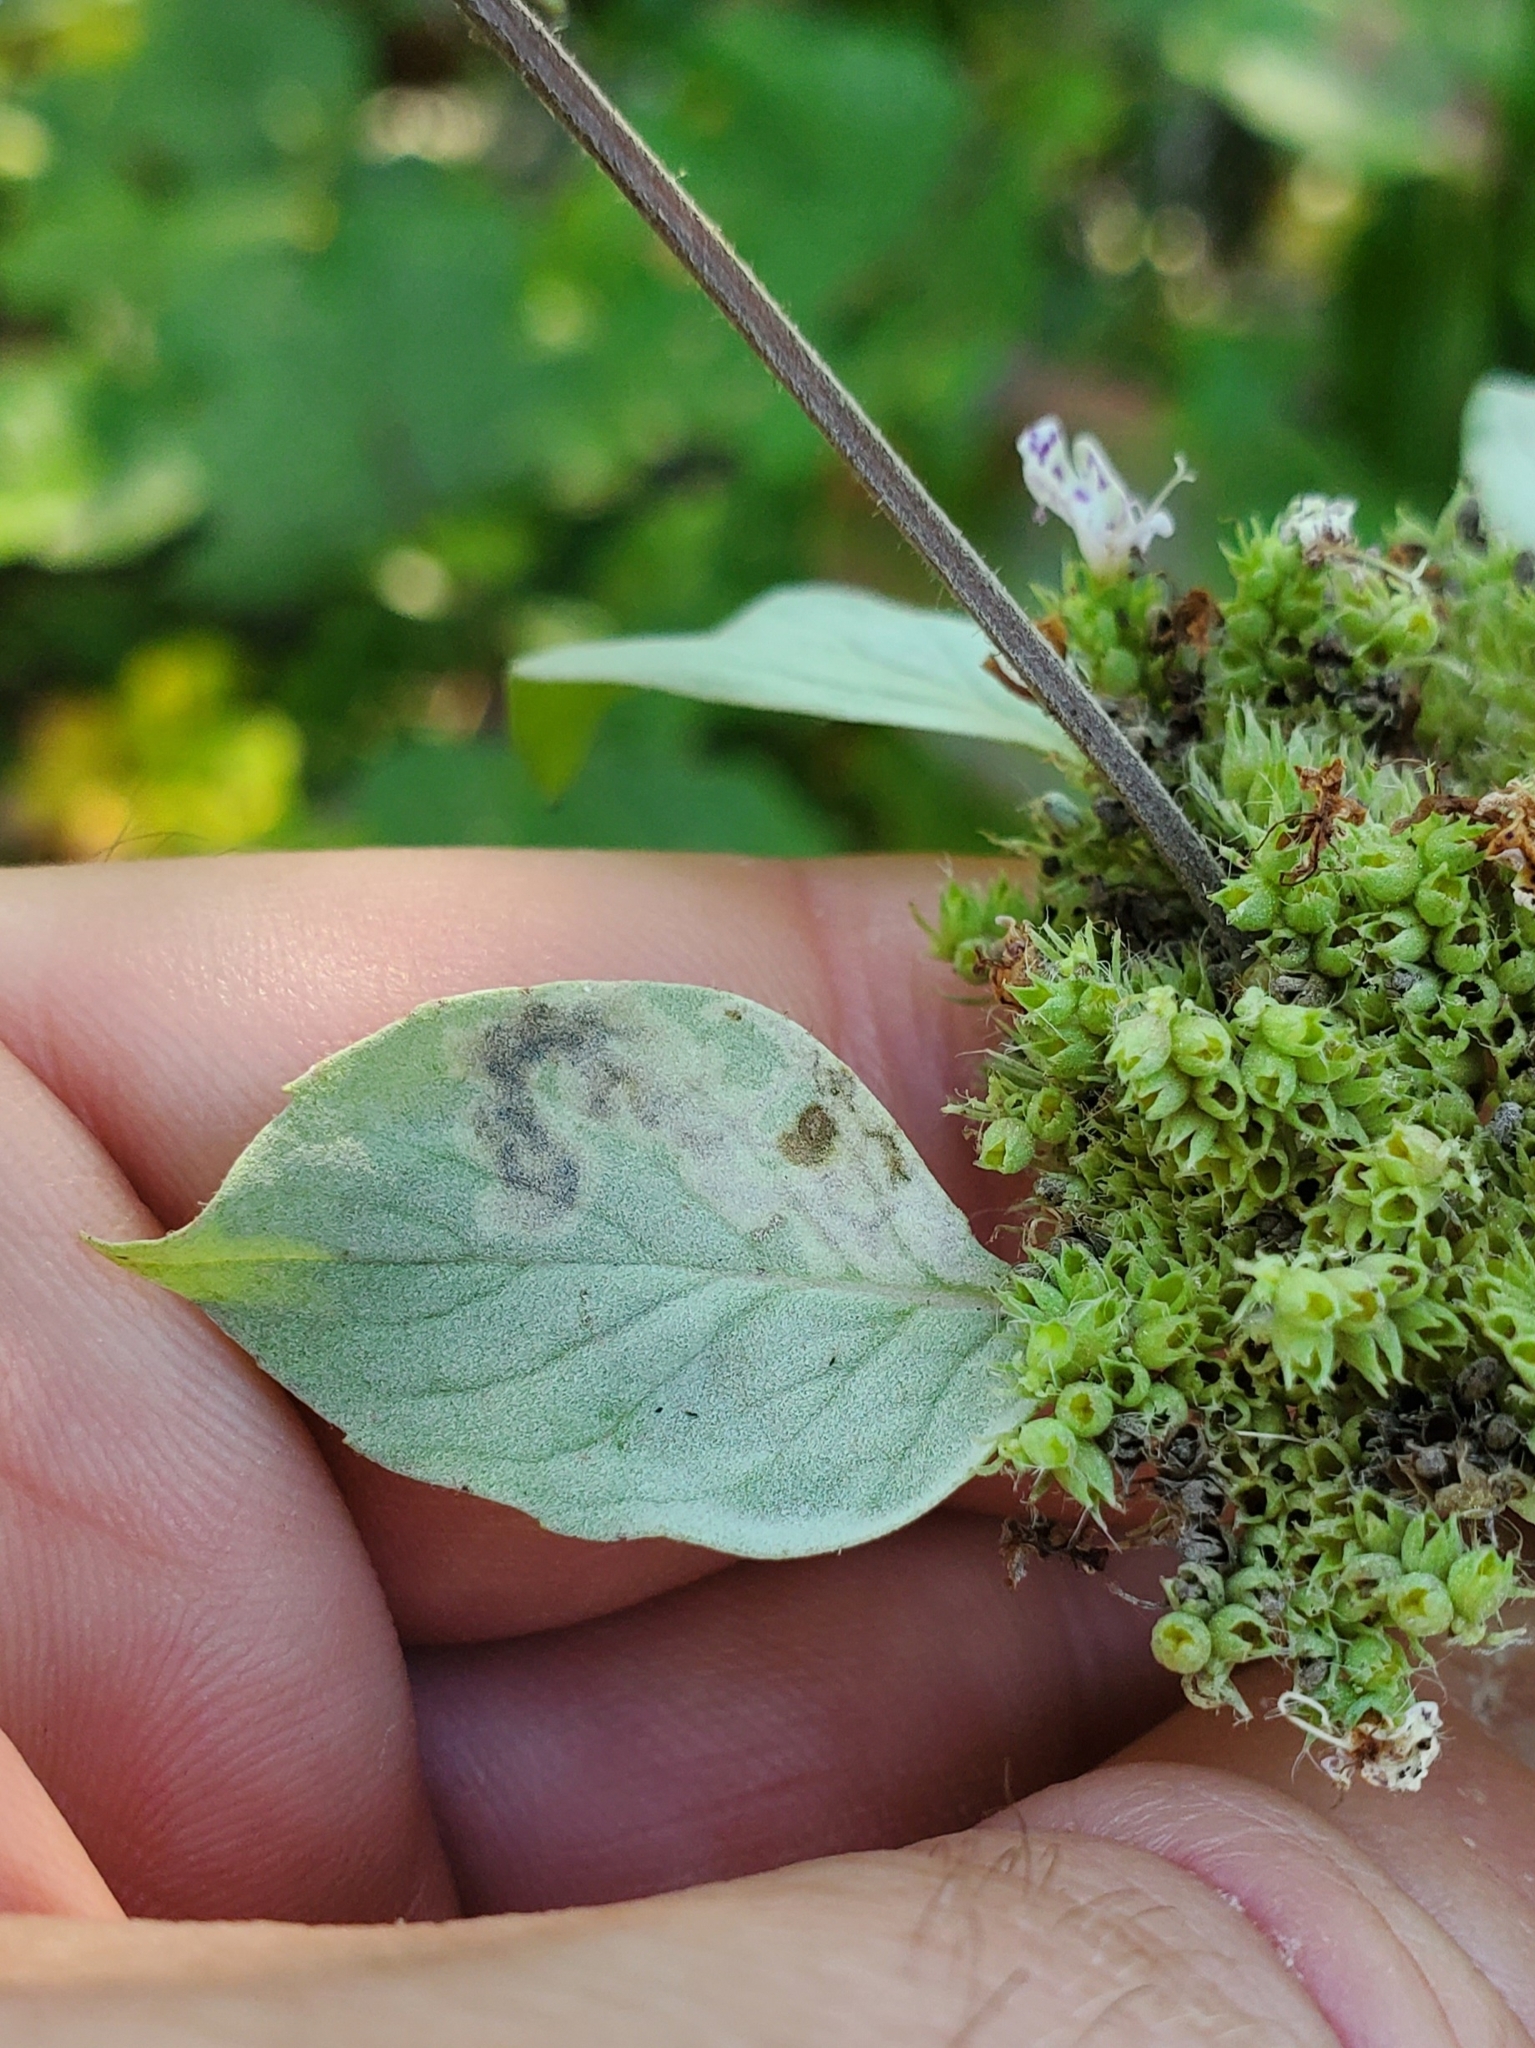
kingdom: Animalia
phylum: Arthropoda
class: Insecta
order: Diptera
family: Agromyzidae
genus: Calycomyza
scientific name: Calycomyza menthae
